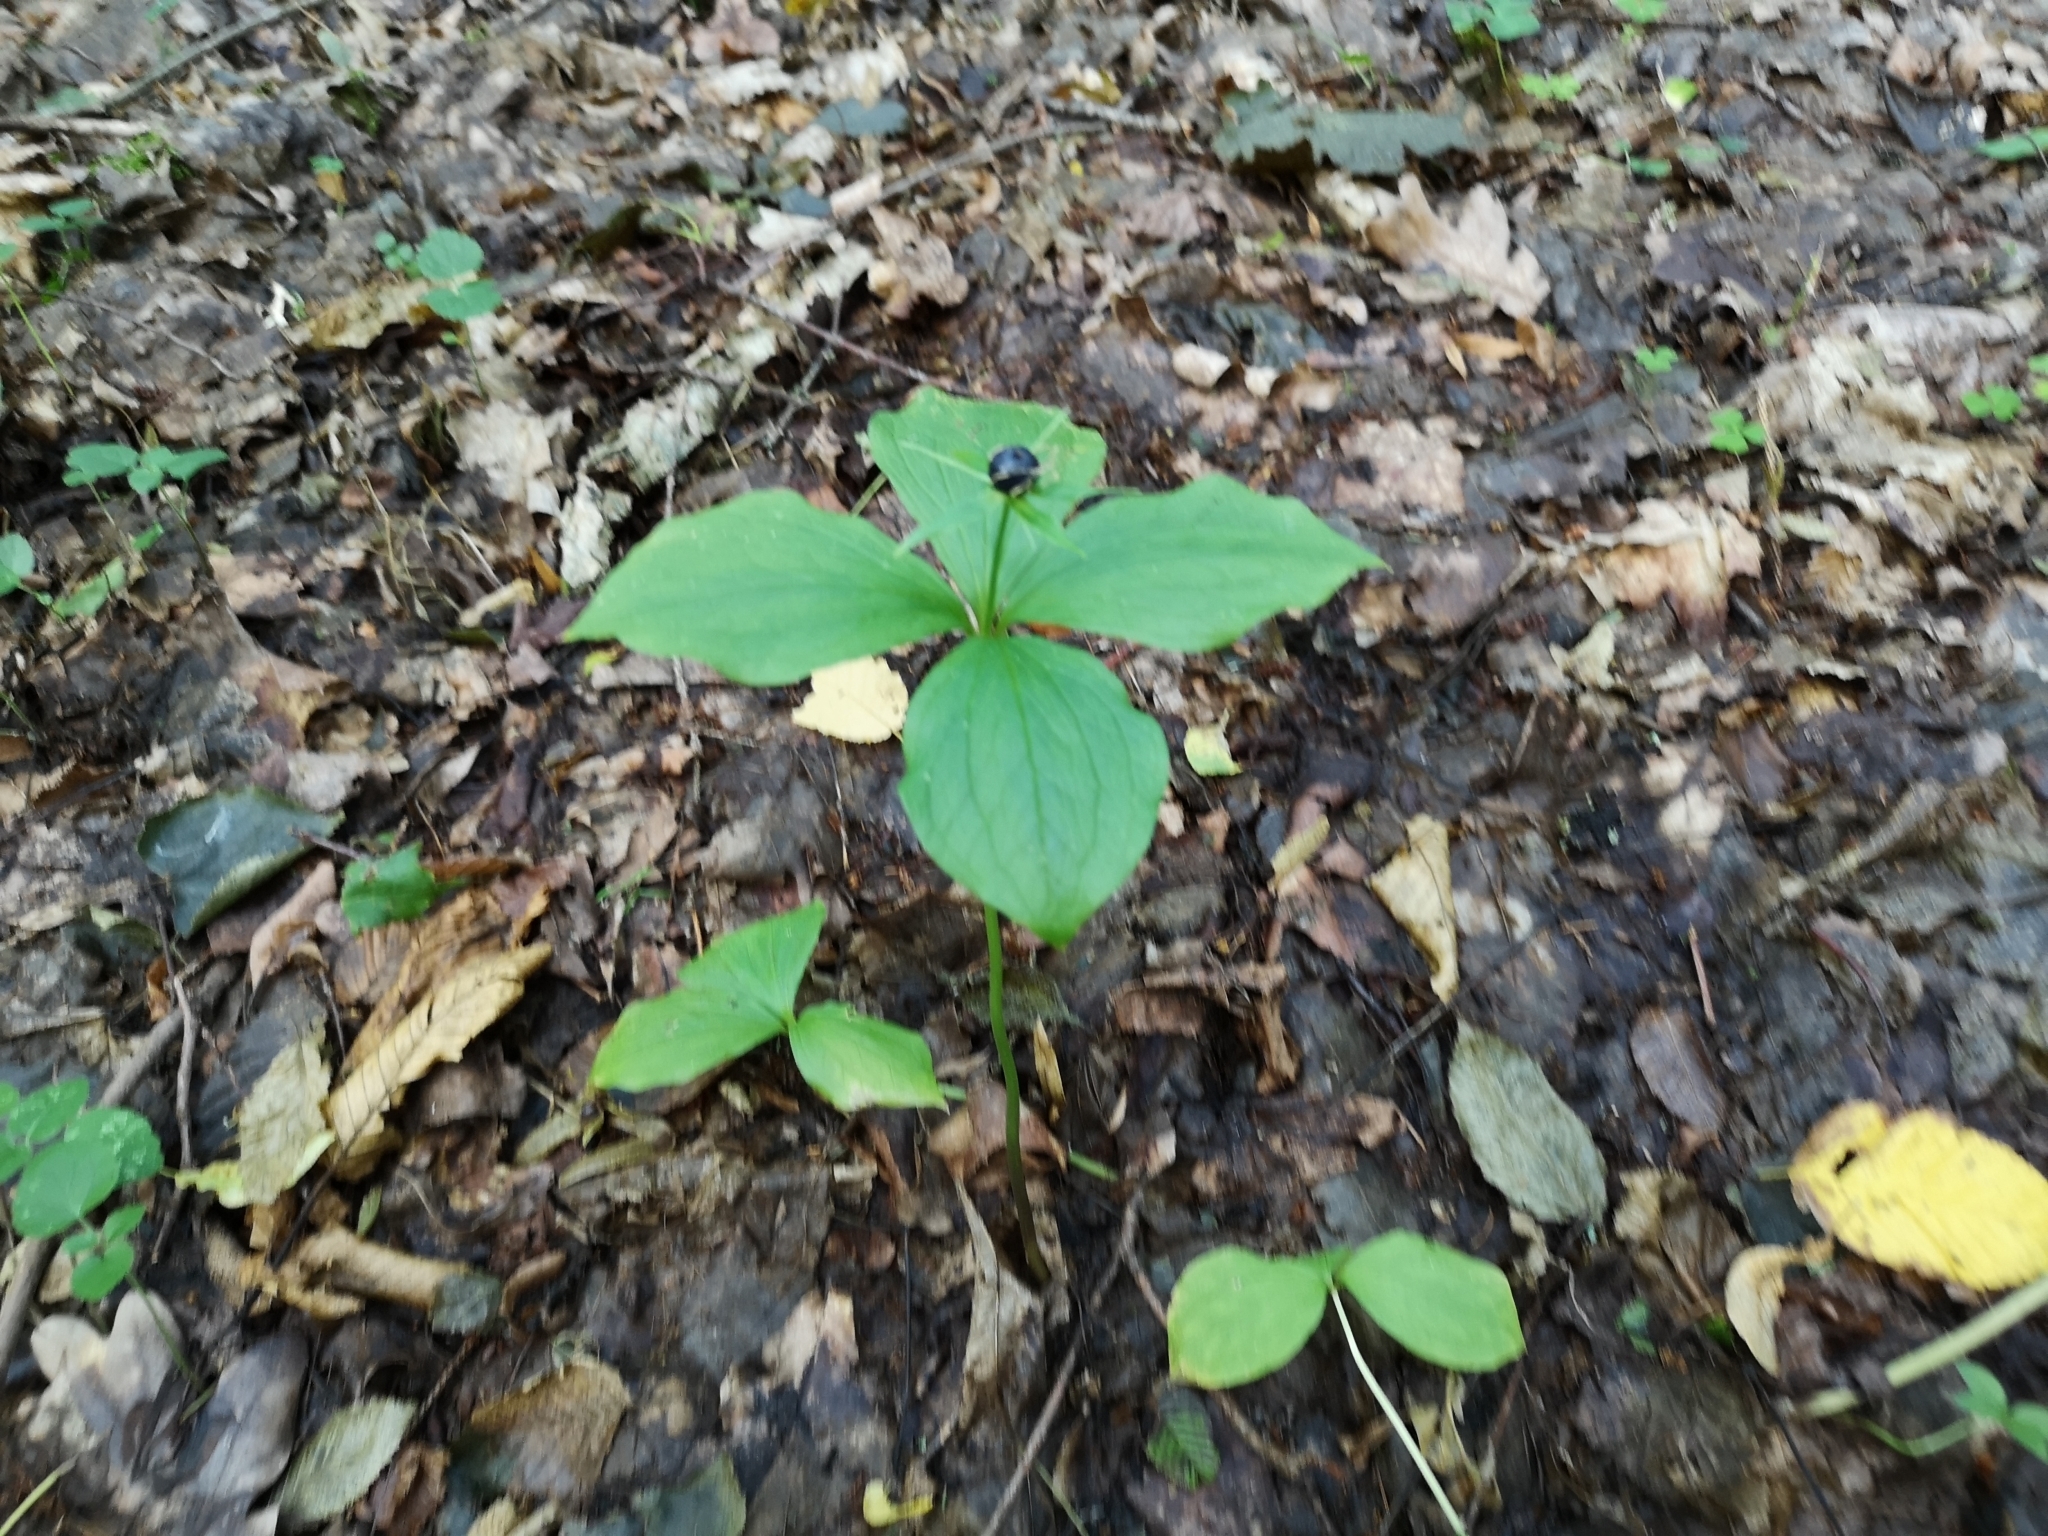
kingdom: Plantae
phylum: Tracheophyta
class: Liliopsida
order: Liliales
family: Melanthiaceae
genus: Paris
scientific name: Paris quadrifolia
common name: Herb-paris
